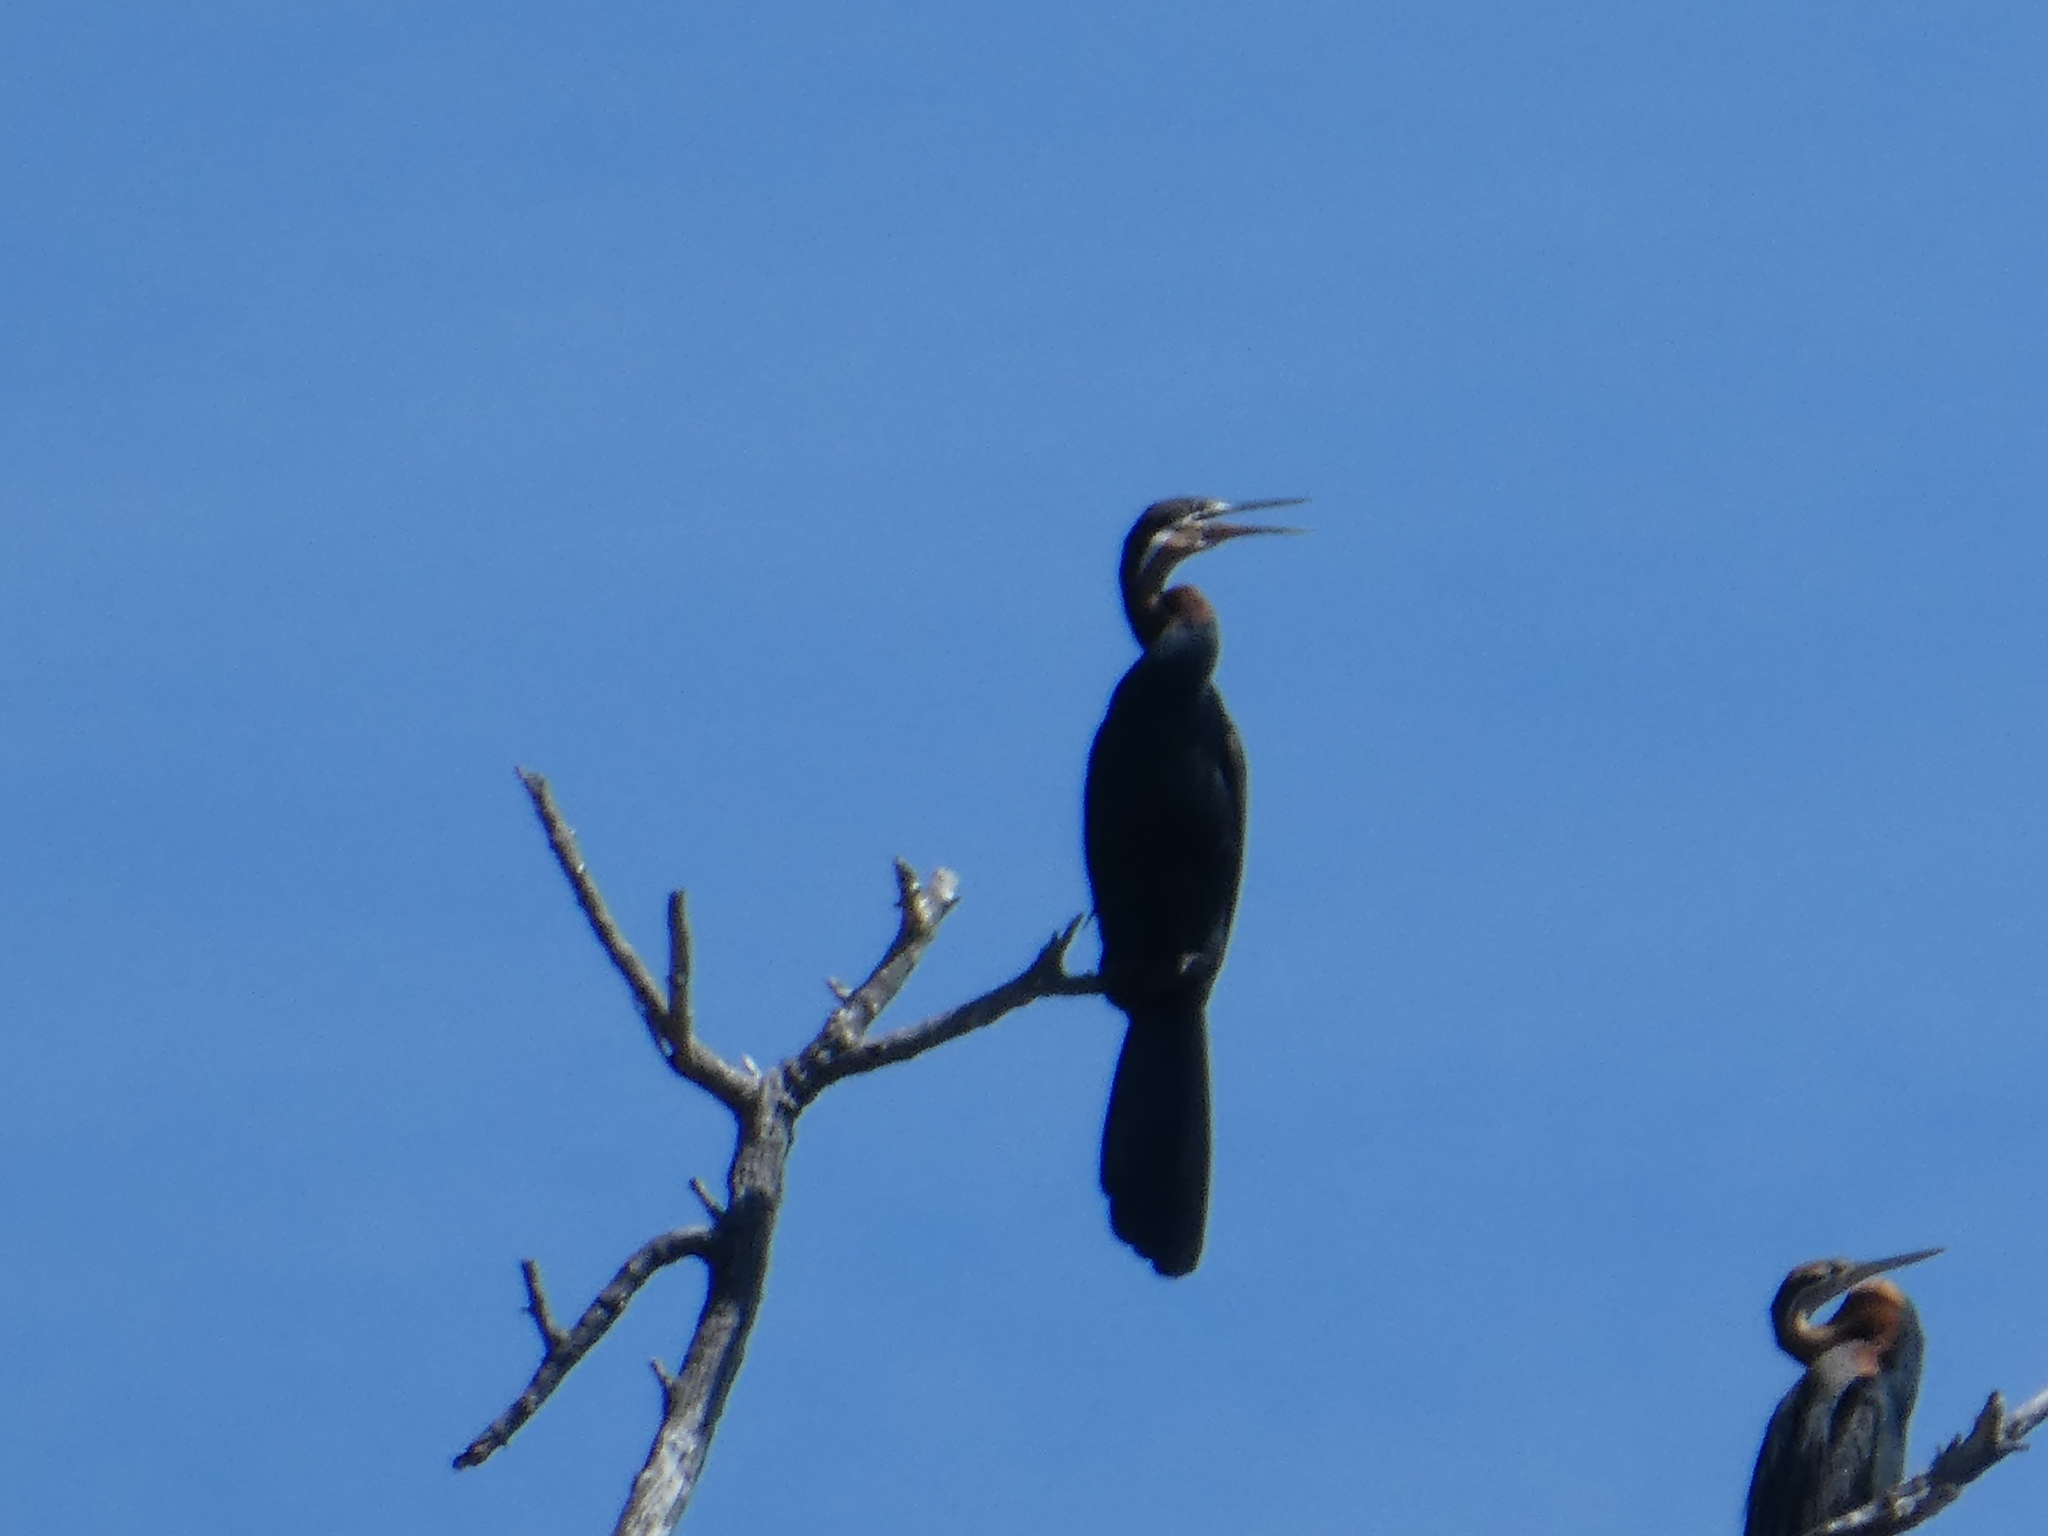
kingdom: Animalia
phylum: Chordata
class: Aves
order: Suliformes
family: Anhingidae
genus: Anhinga
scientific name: Anhinga rufa
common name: African darter
